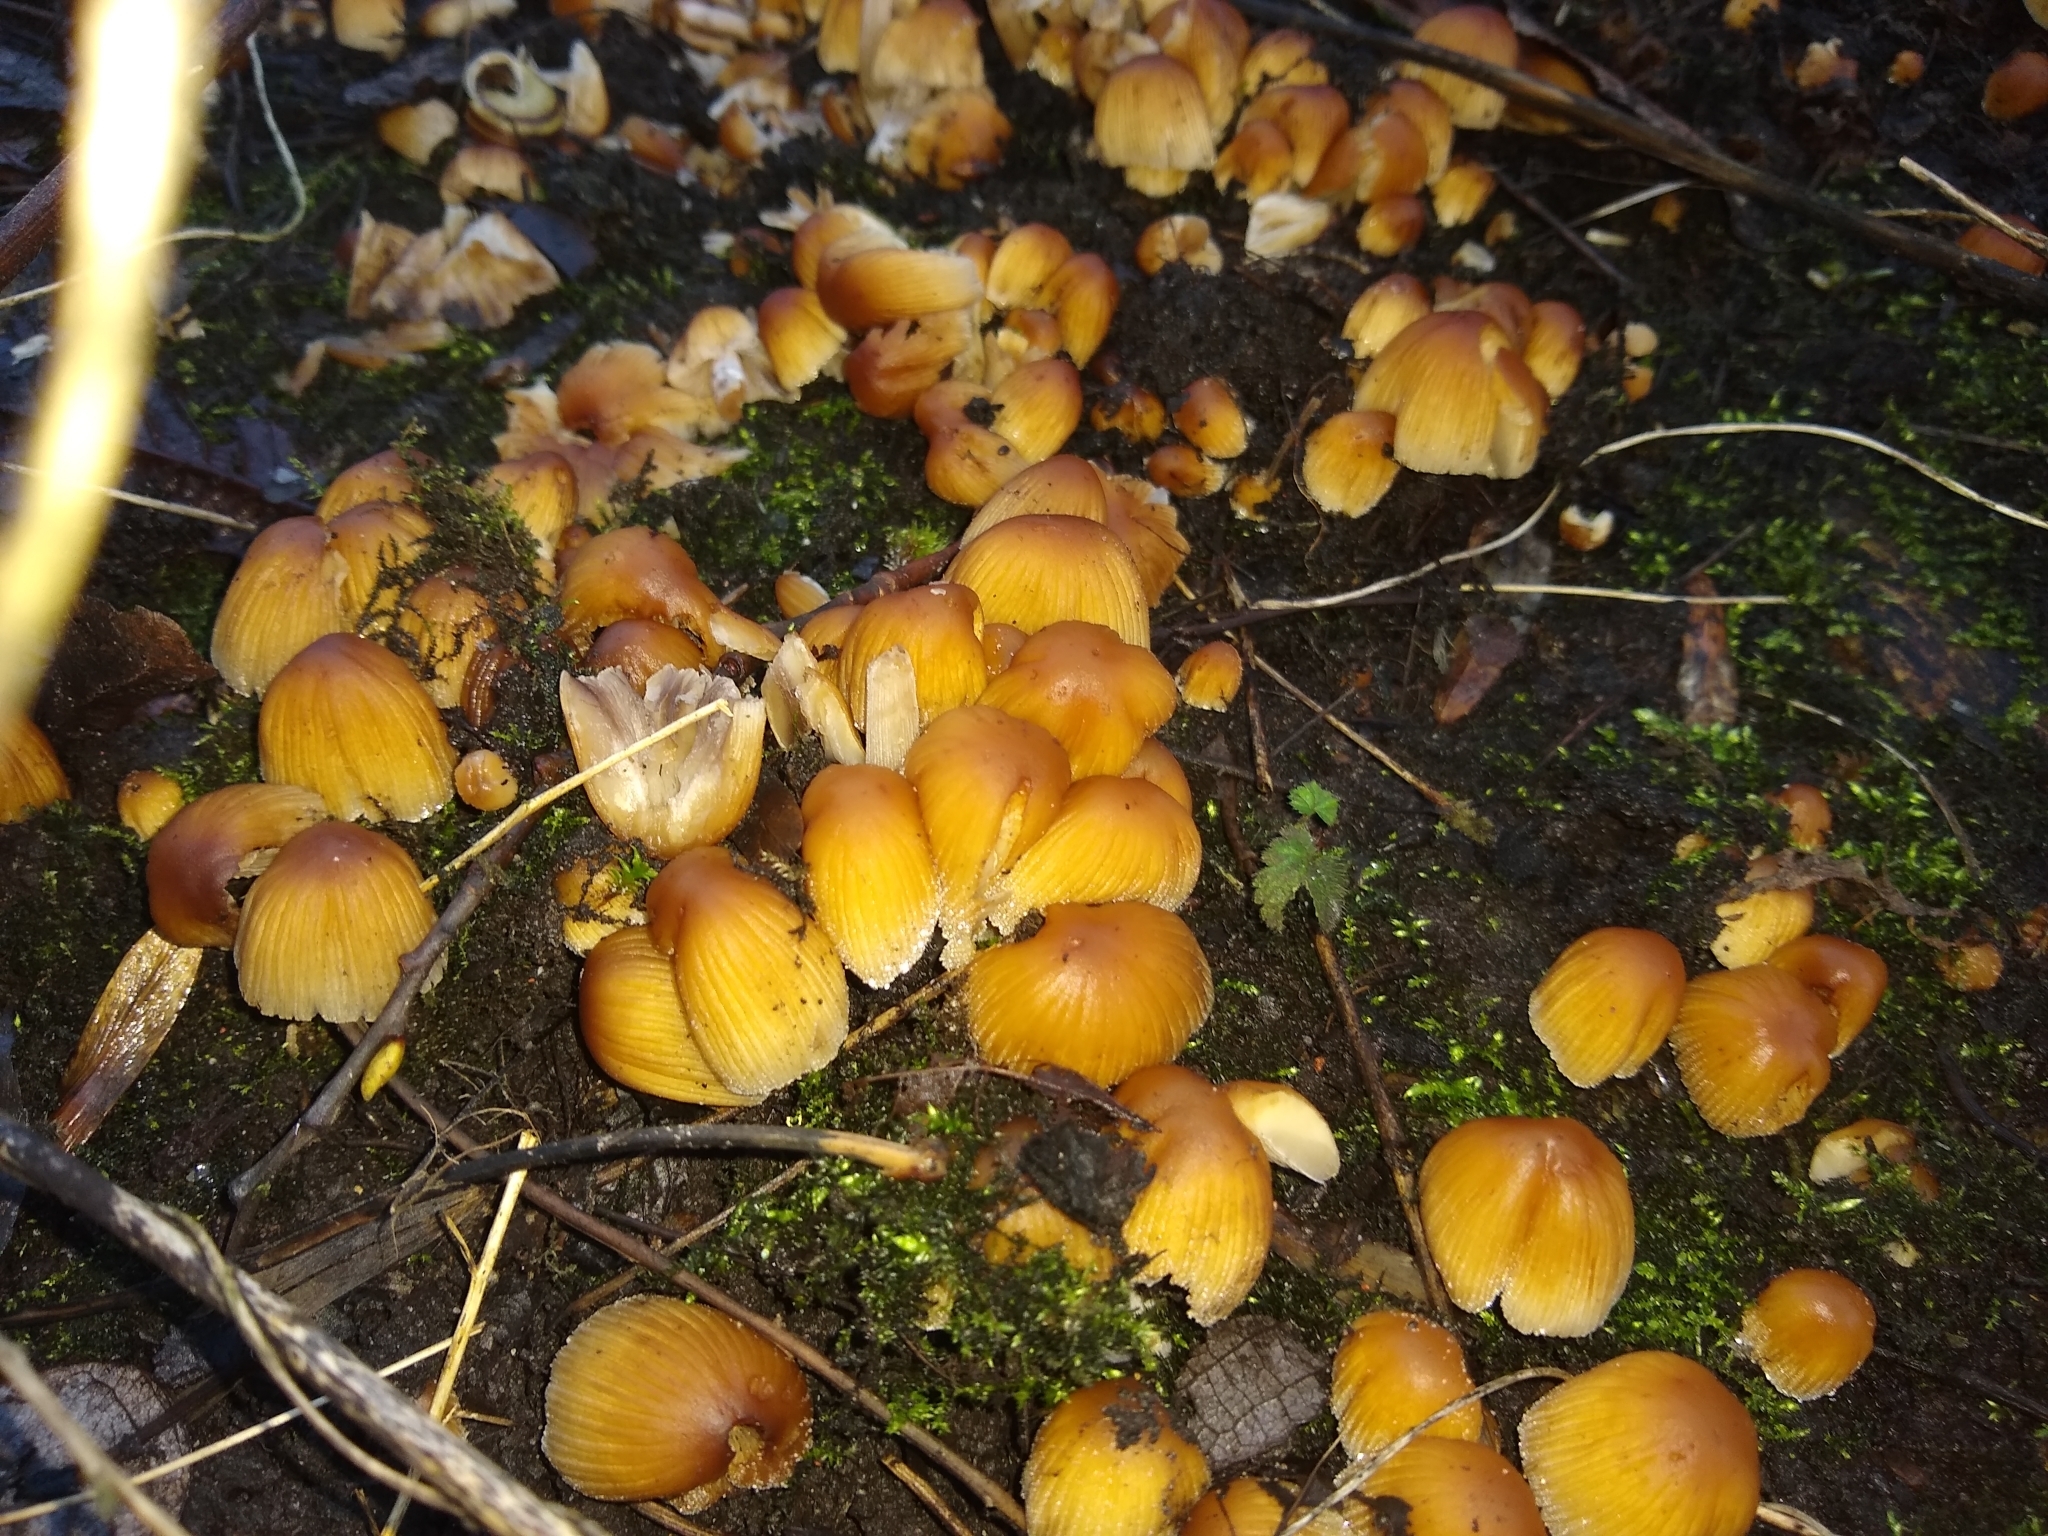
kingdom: Fungi
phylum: Basidiomycota
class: Agaricomycetes
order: Agaricales
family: Psathyrellaceae
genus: Coprinellus
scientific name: Coprinellus micaceus
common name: Glistening ink-cap
